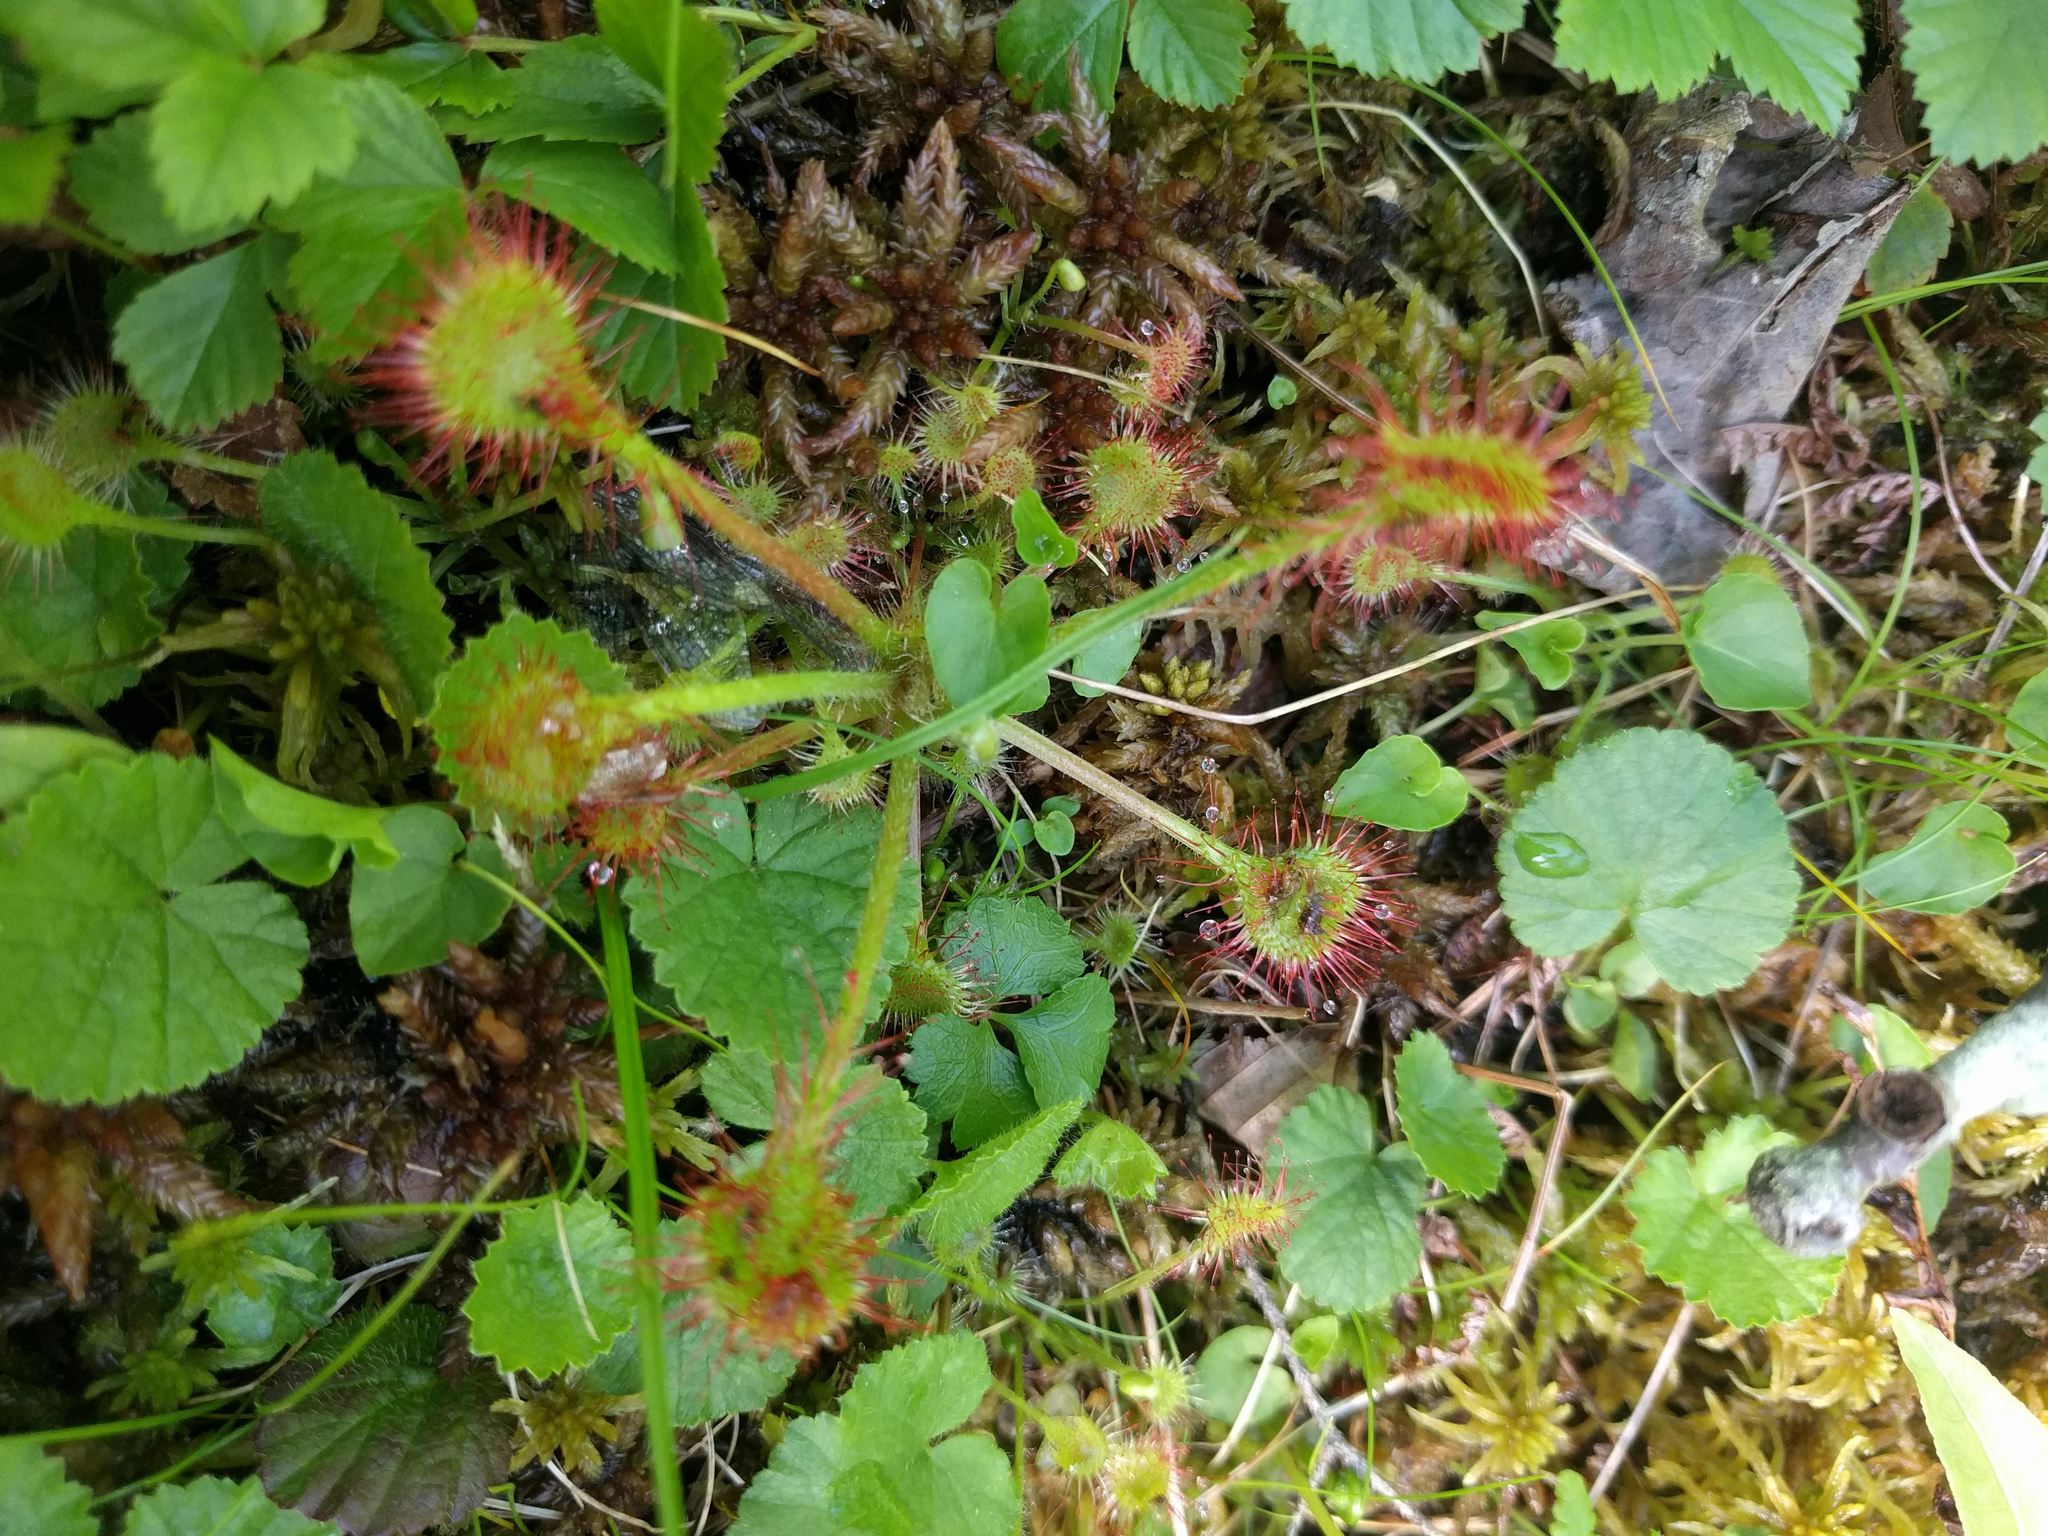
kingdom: Plantae
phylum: Tracheophyta
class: Magnoliopsida
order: Caryophyllales
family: Droseraceae
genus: Drosera
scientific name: Drosera rotundifolia
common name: Round-leaved sundew
